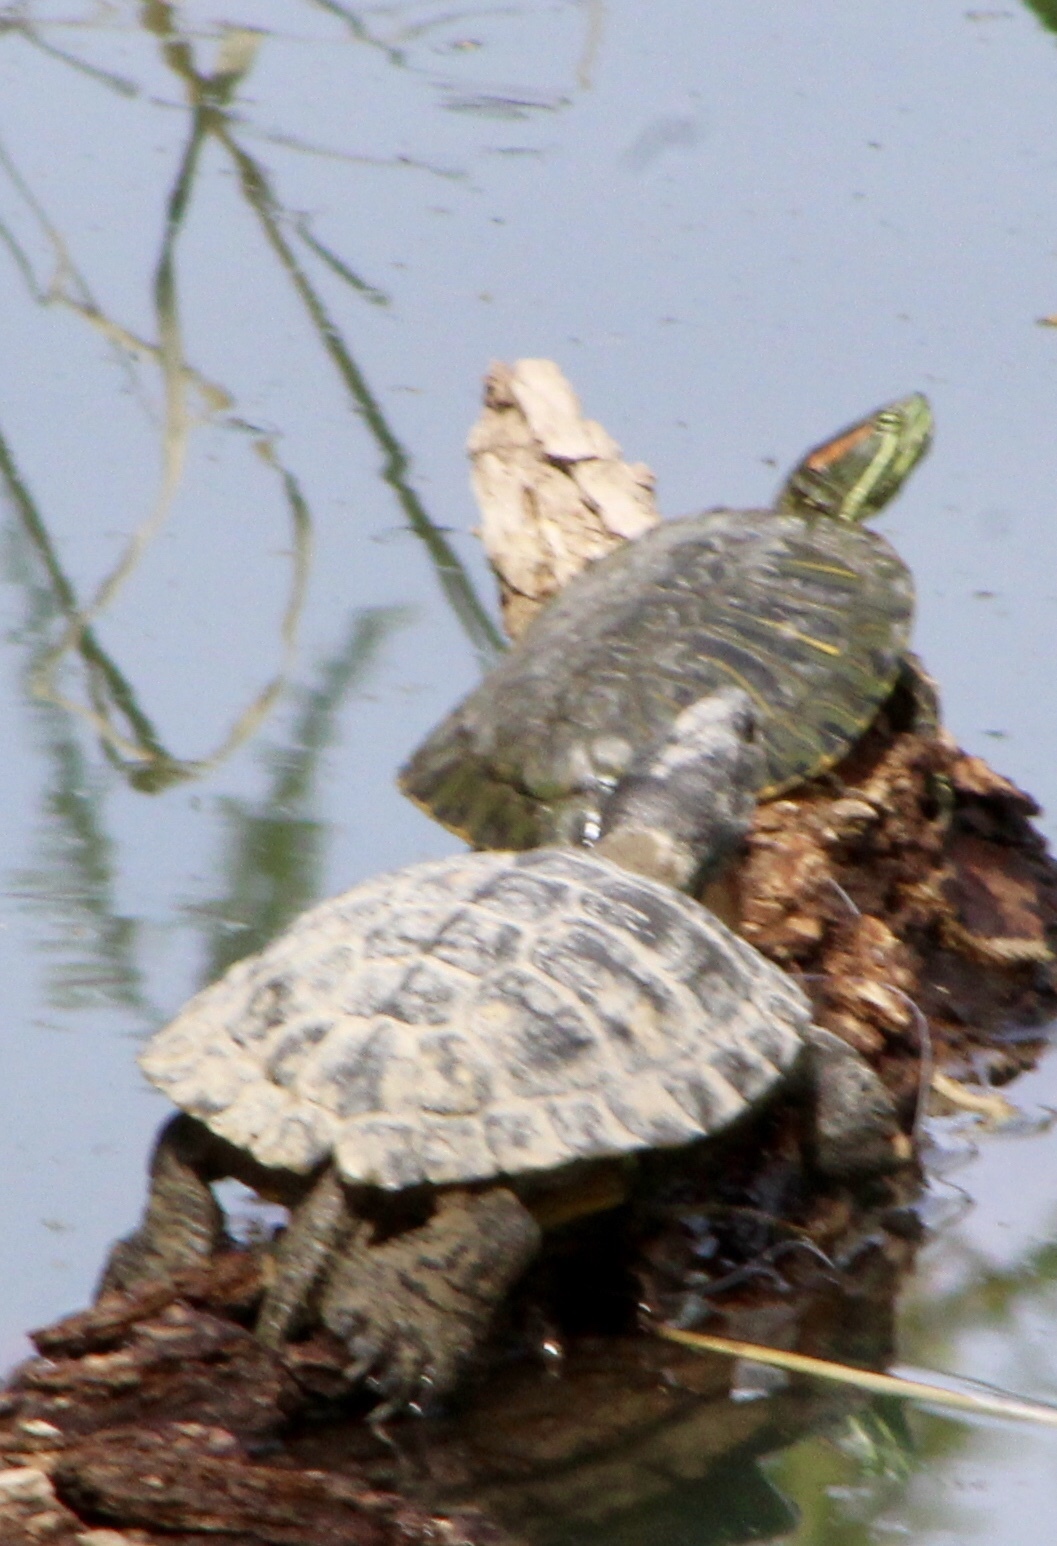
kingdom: Animalia
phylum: Chordata
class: Testudines
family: Emydidae
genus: Trachemys
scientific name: Trachemys scripta
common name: Slider
